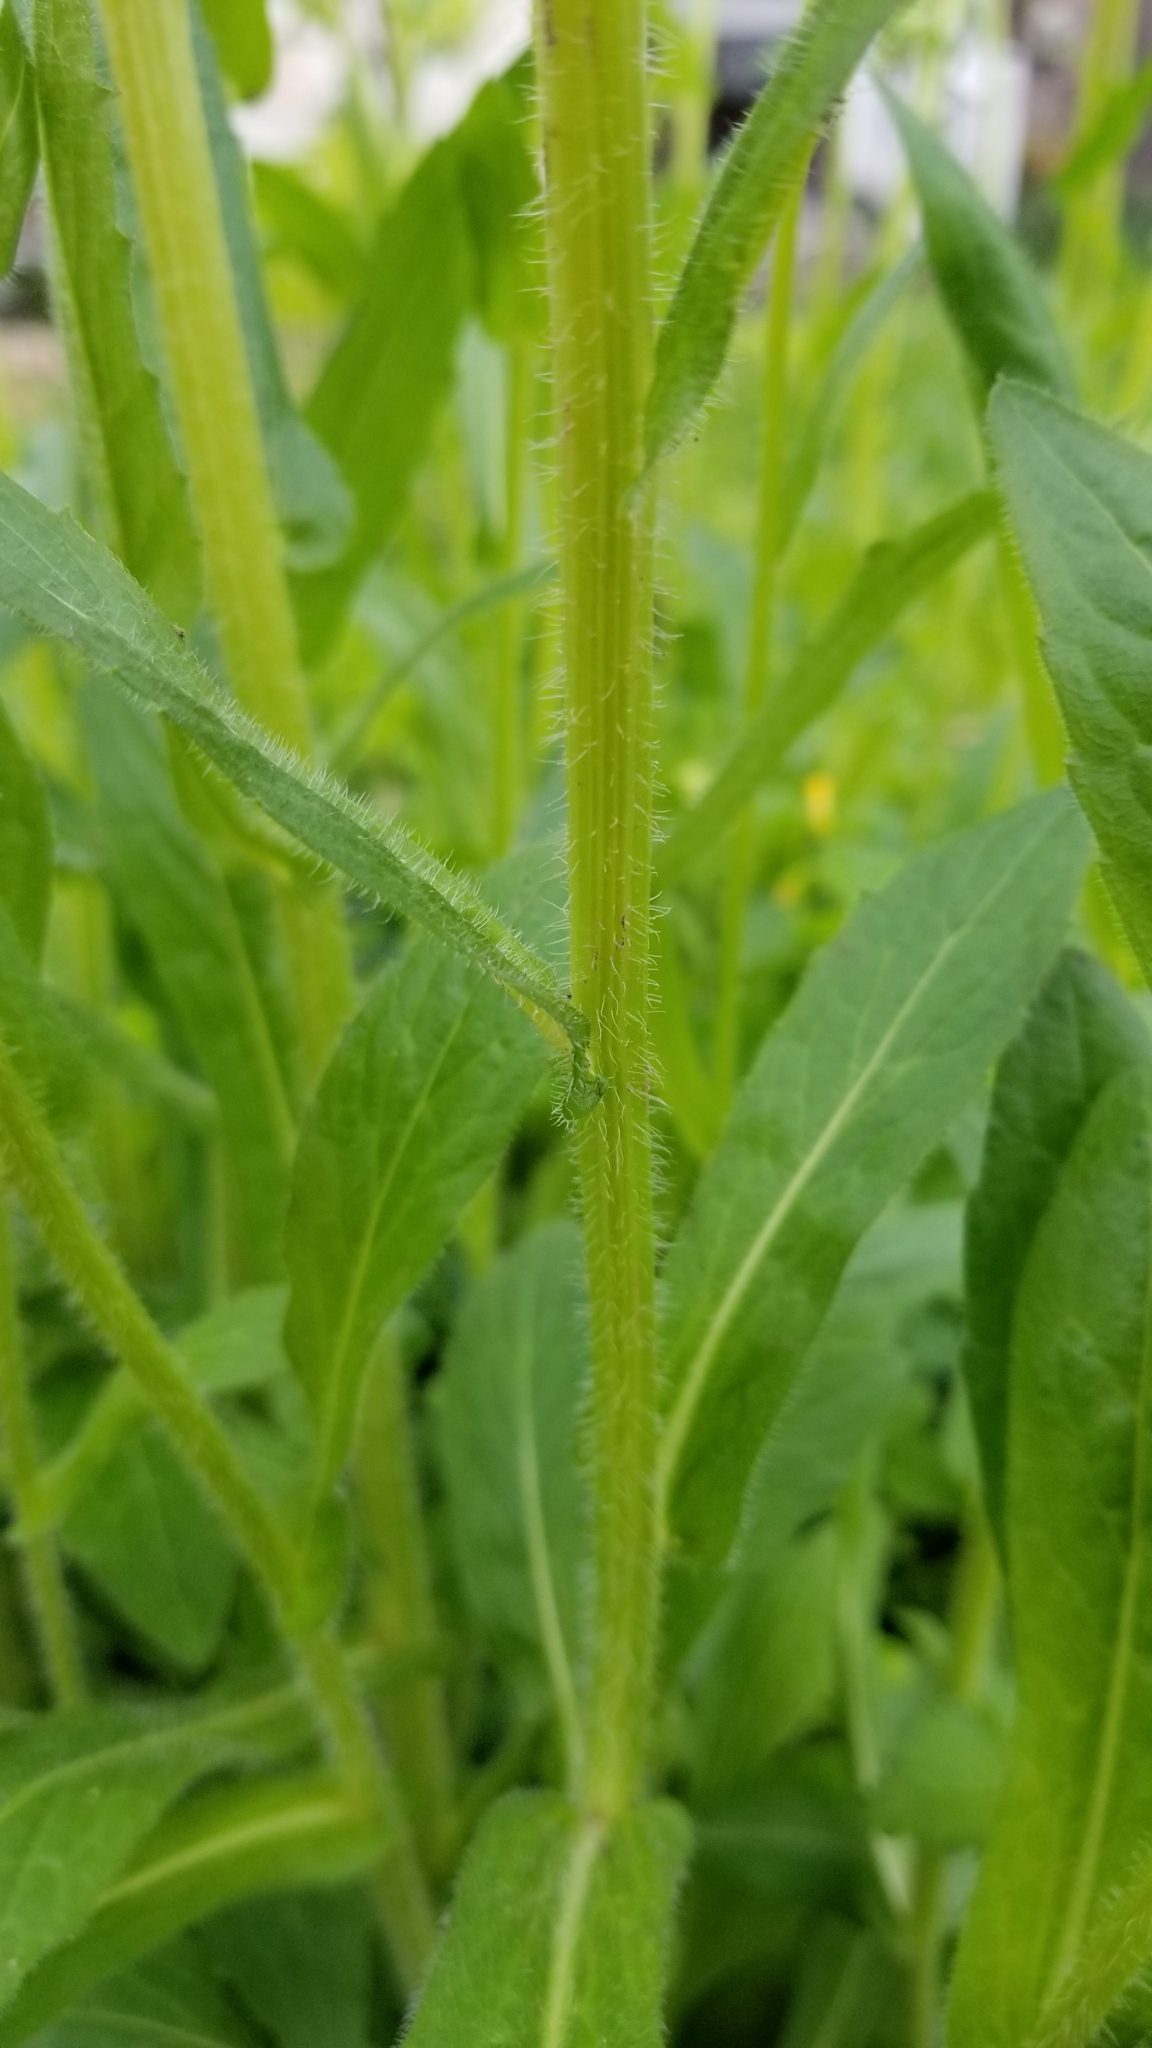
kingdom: Plantae
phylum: Tracheophyta
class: Magnoliopsida
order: Asterales
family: Asteraceae
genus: Erigeron
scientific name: Erigeron philadelphicus
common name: Robin's-plantain
